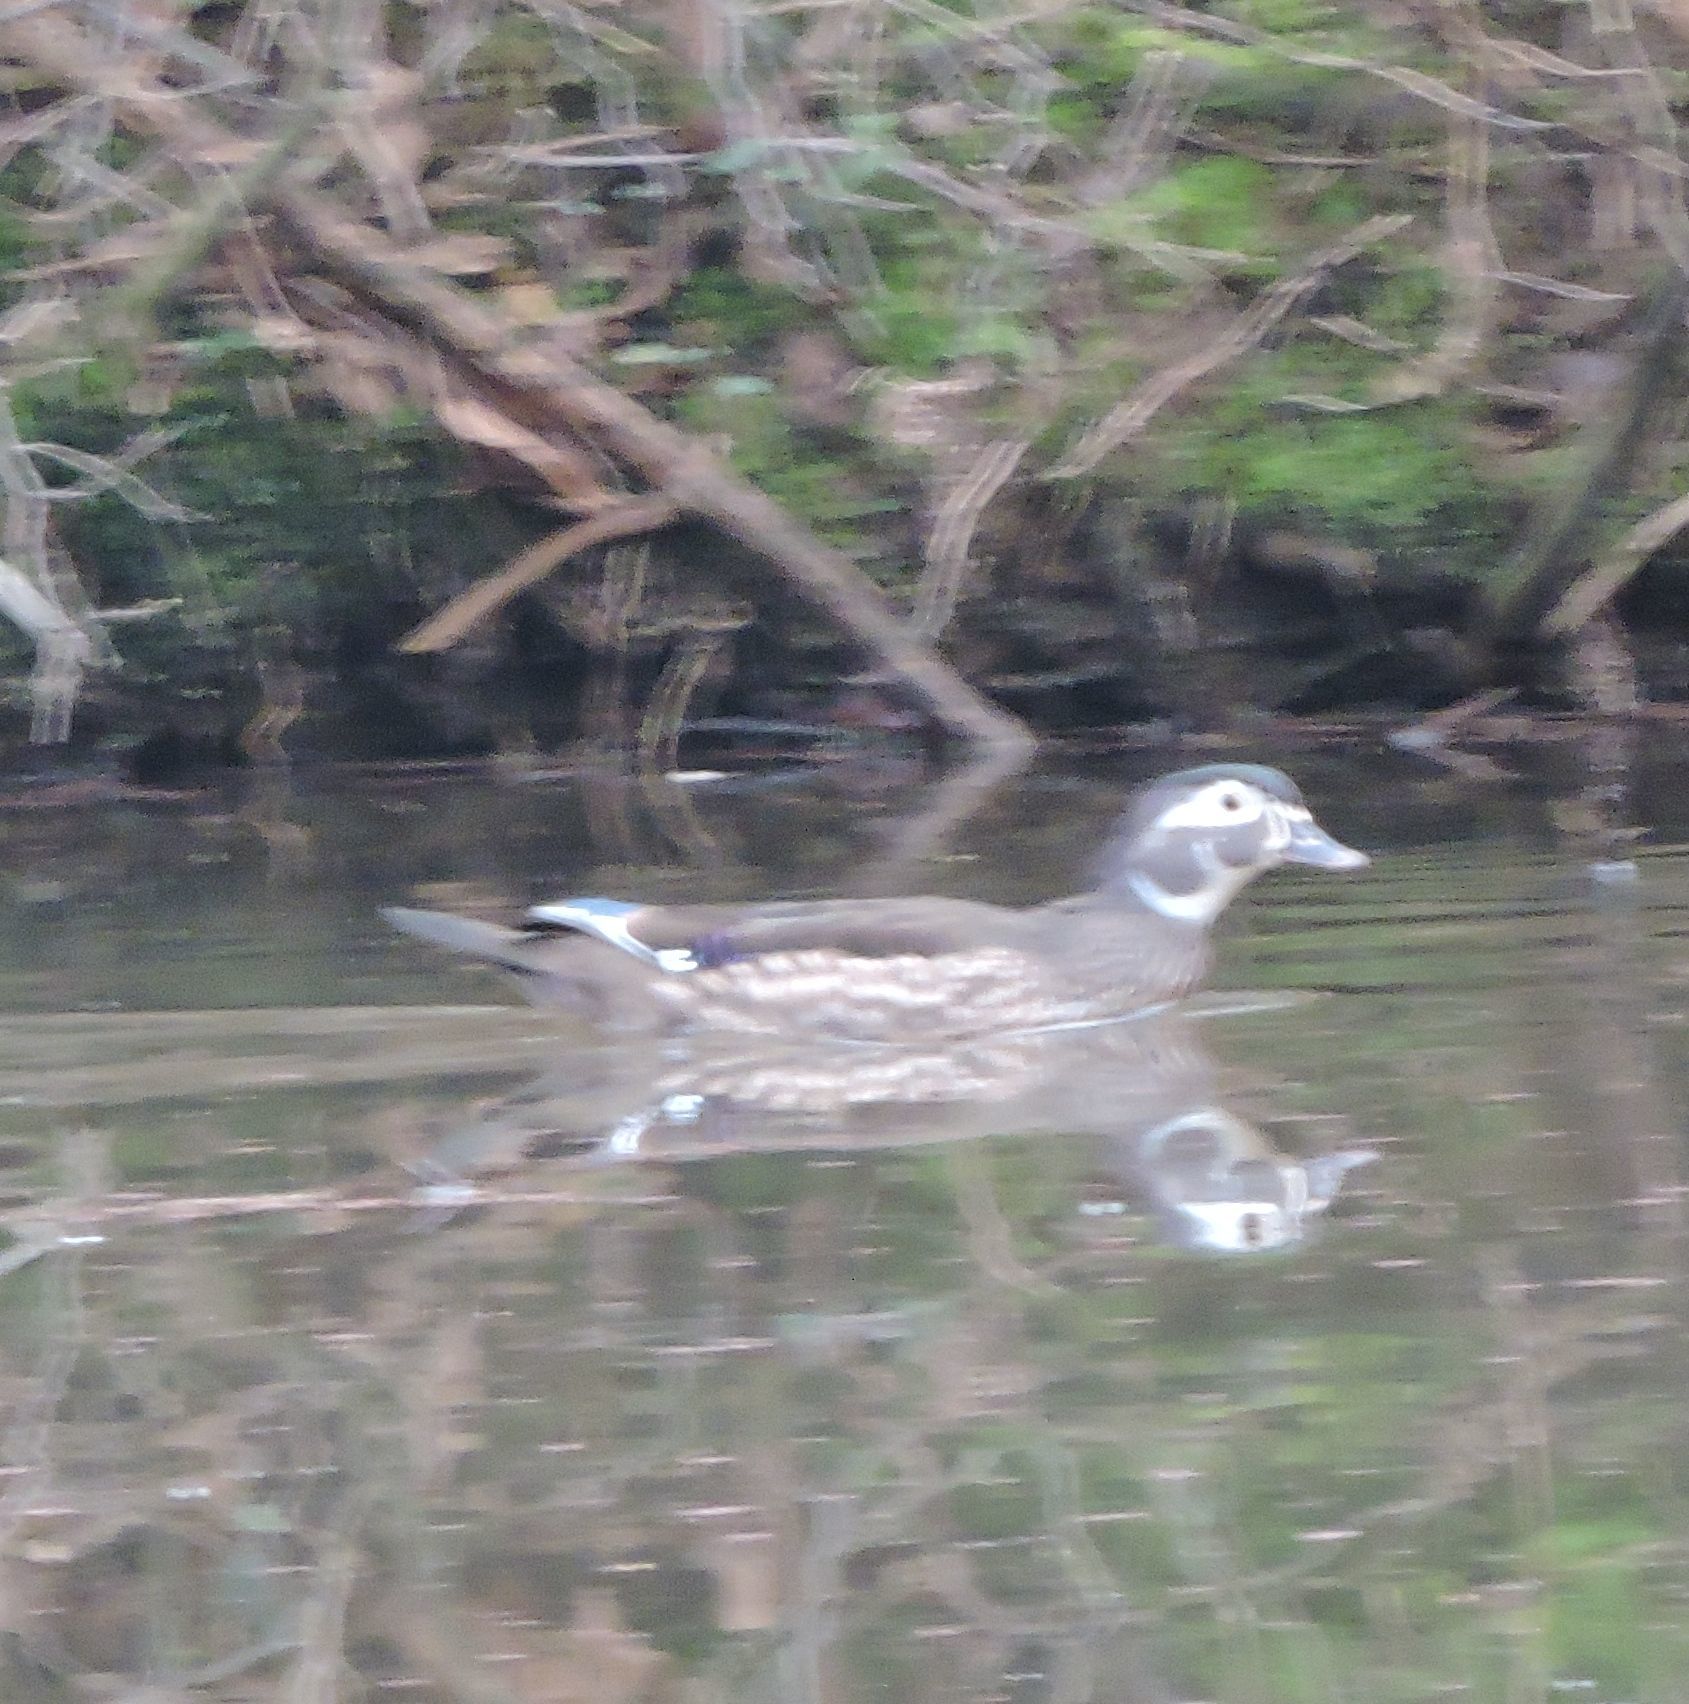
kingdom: Animalia
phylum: Chordata
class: Aves
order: Anseriformes
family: Anatidae
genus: Aix
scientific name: Aix sponsa
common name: Wood duck
